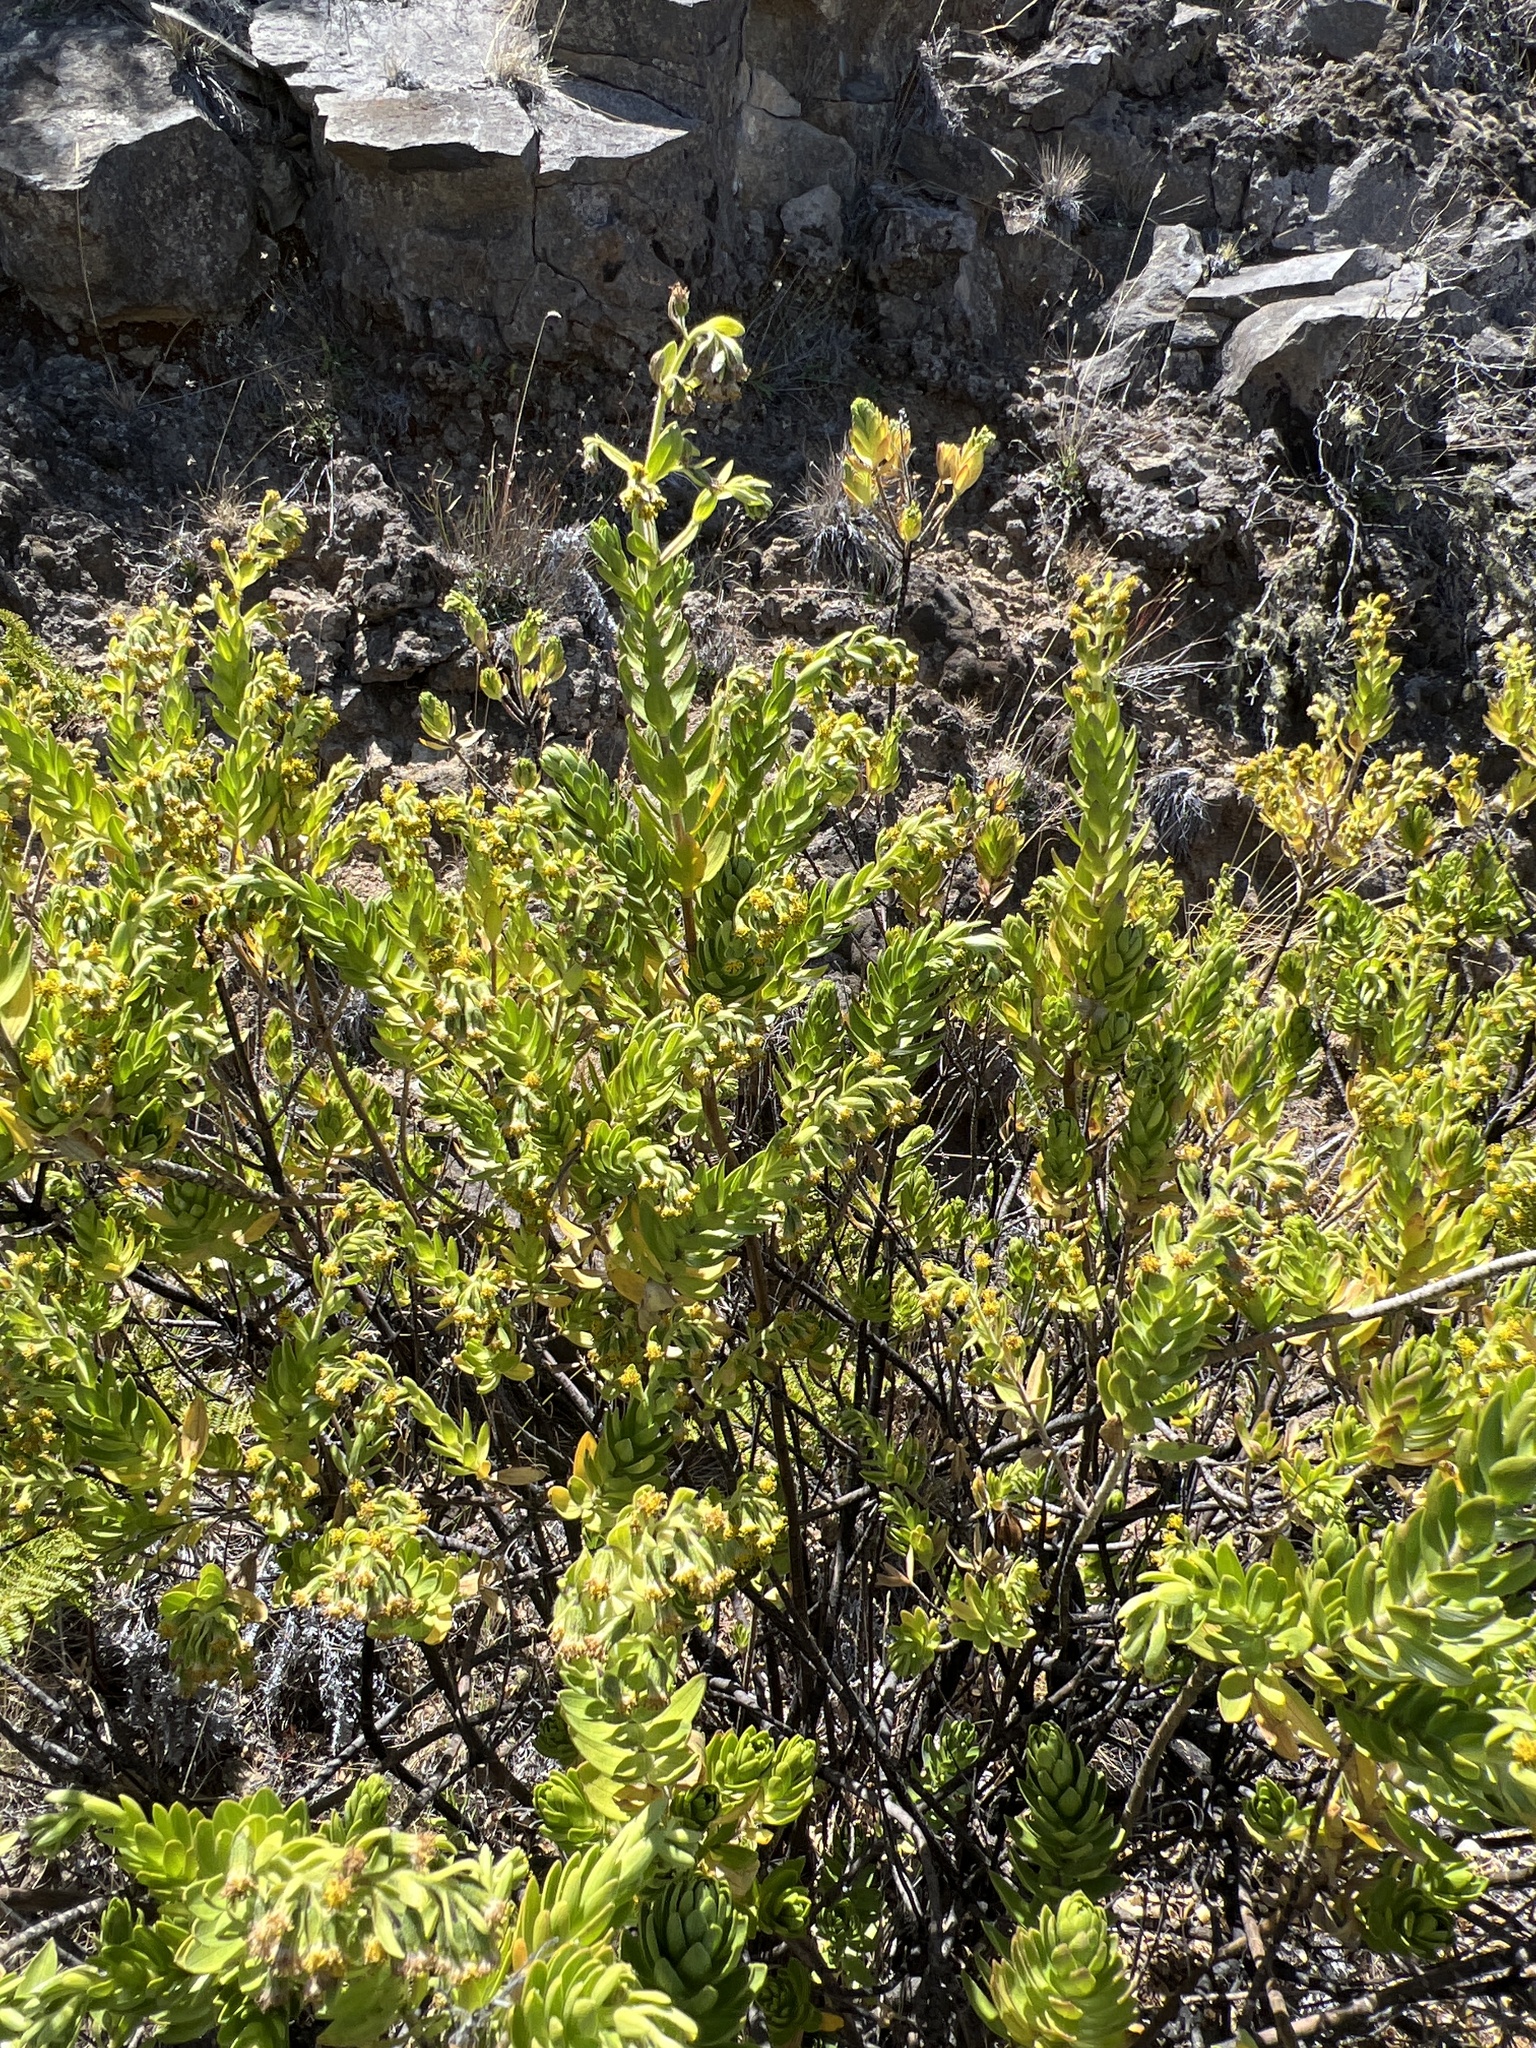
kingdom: Plantae
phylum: Tracheophyta
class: Magnoliopsida
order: Asterales
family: Asteraceae
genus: Dubautia
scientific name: Dubautia menziesii
